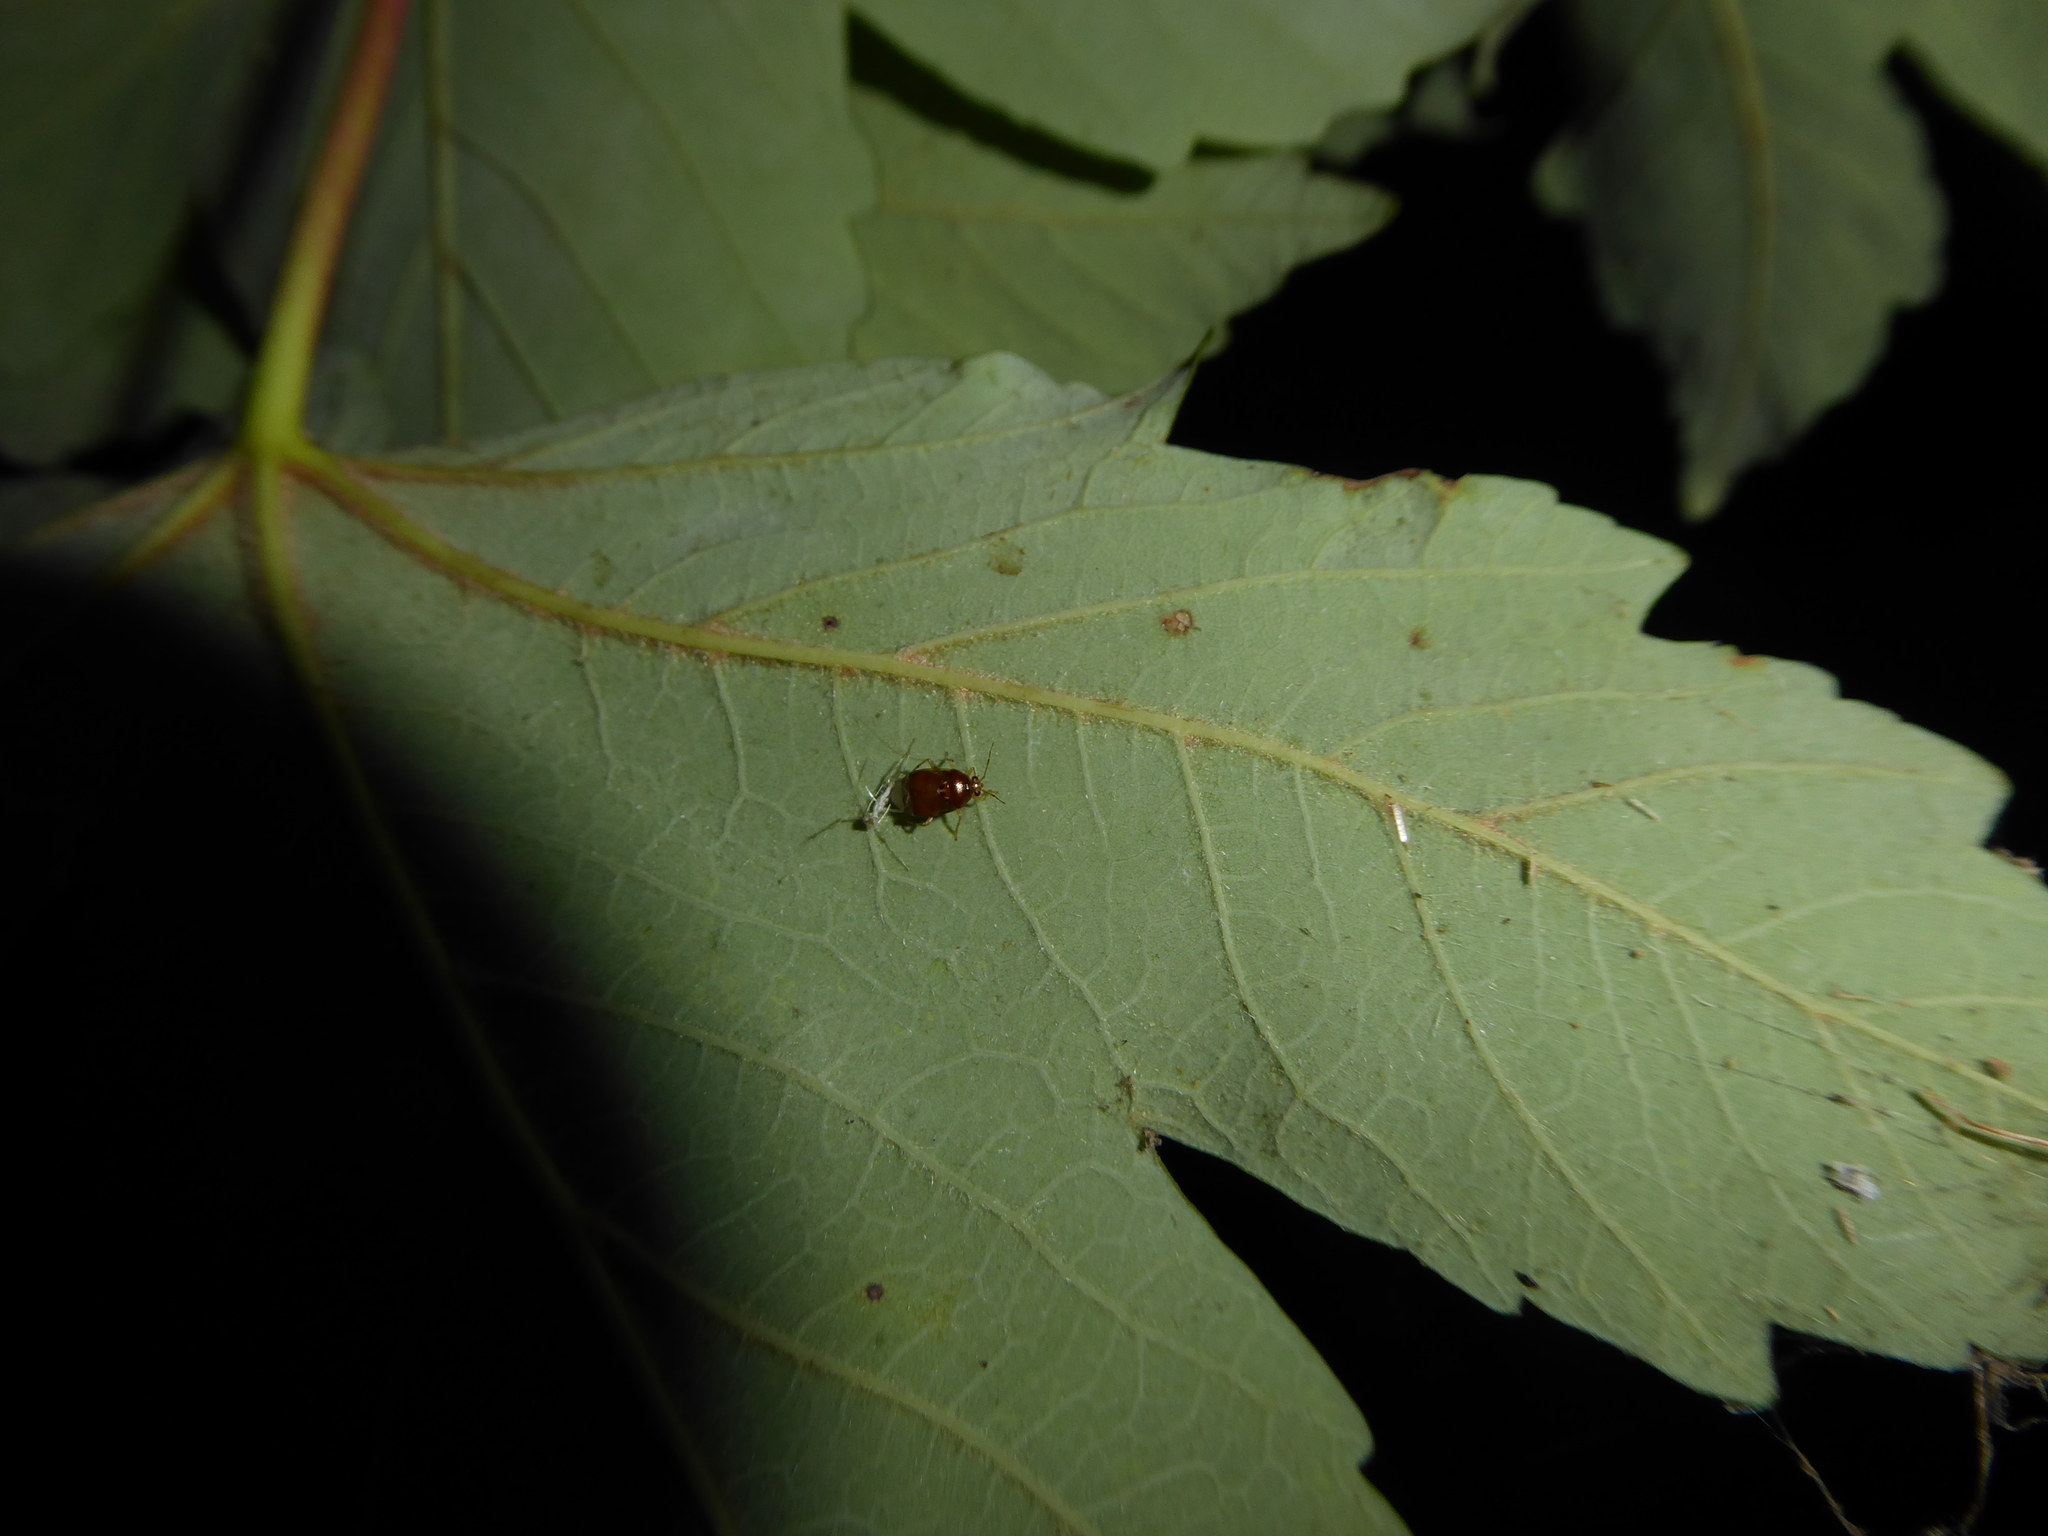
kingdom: Animalia
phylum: Arthropoda
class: Insecta
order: Hemiptera
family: Miridae
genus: Deraeocoris
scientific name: Deraeocoris lutescens
